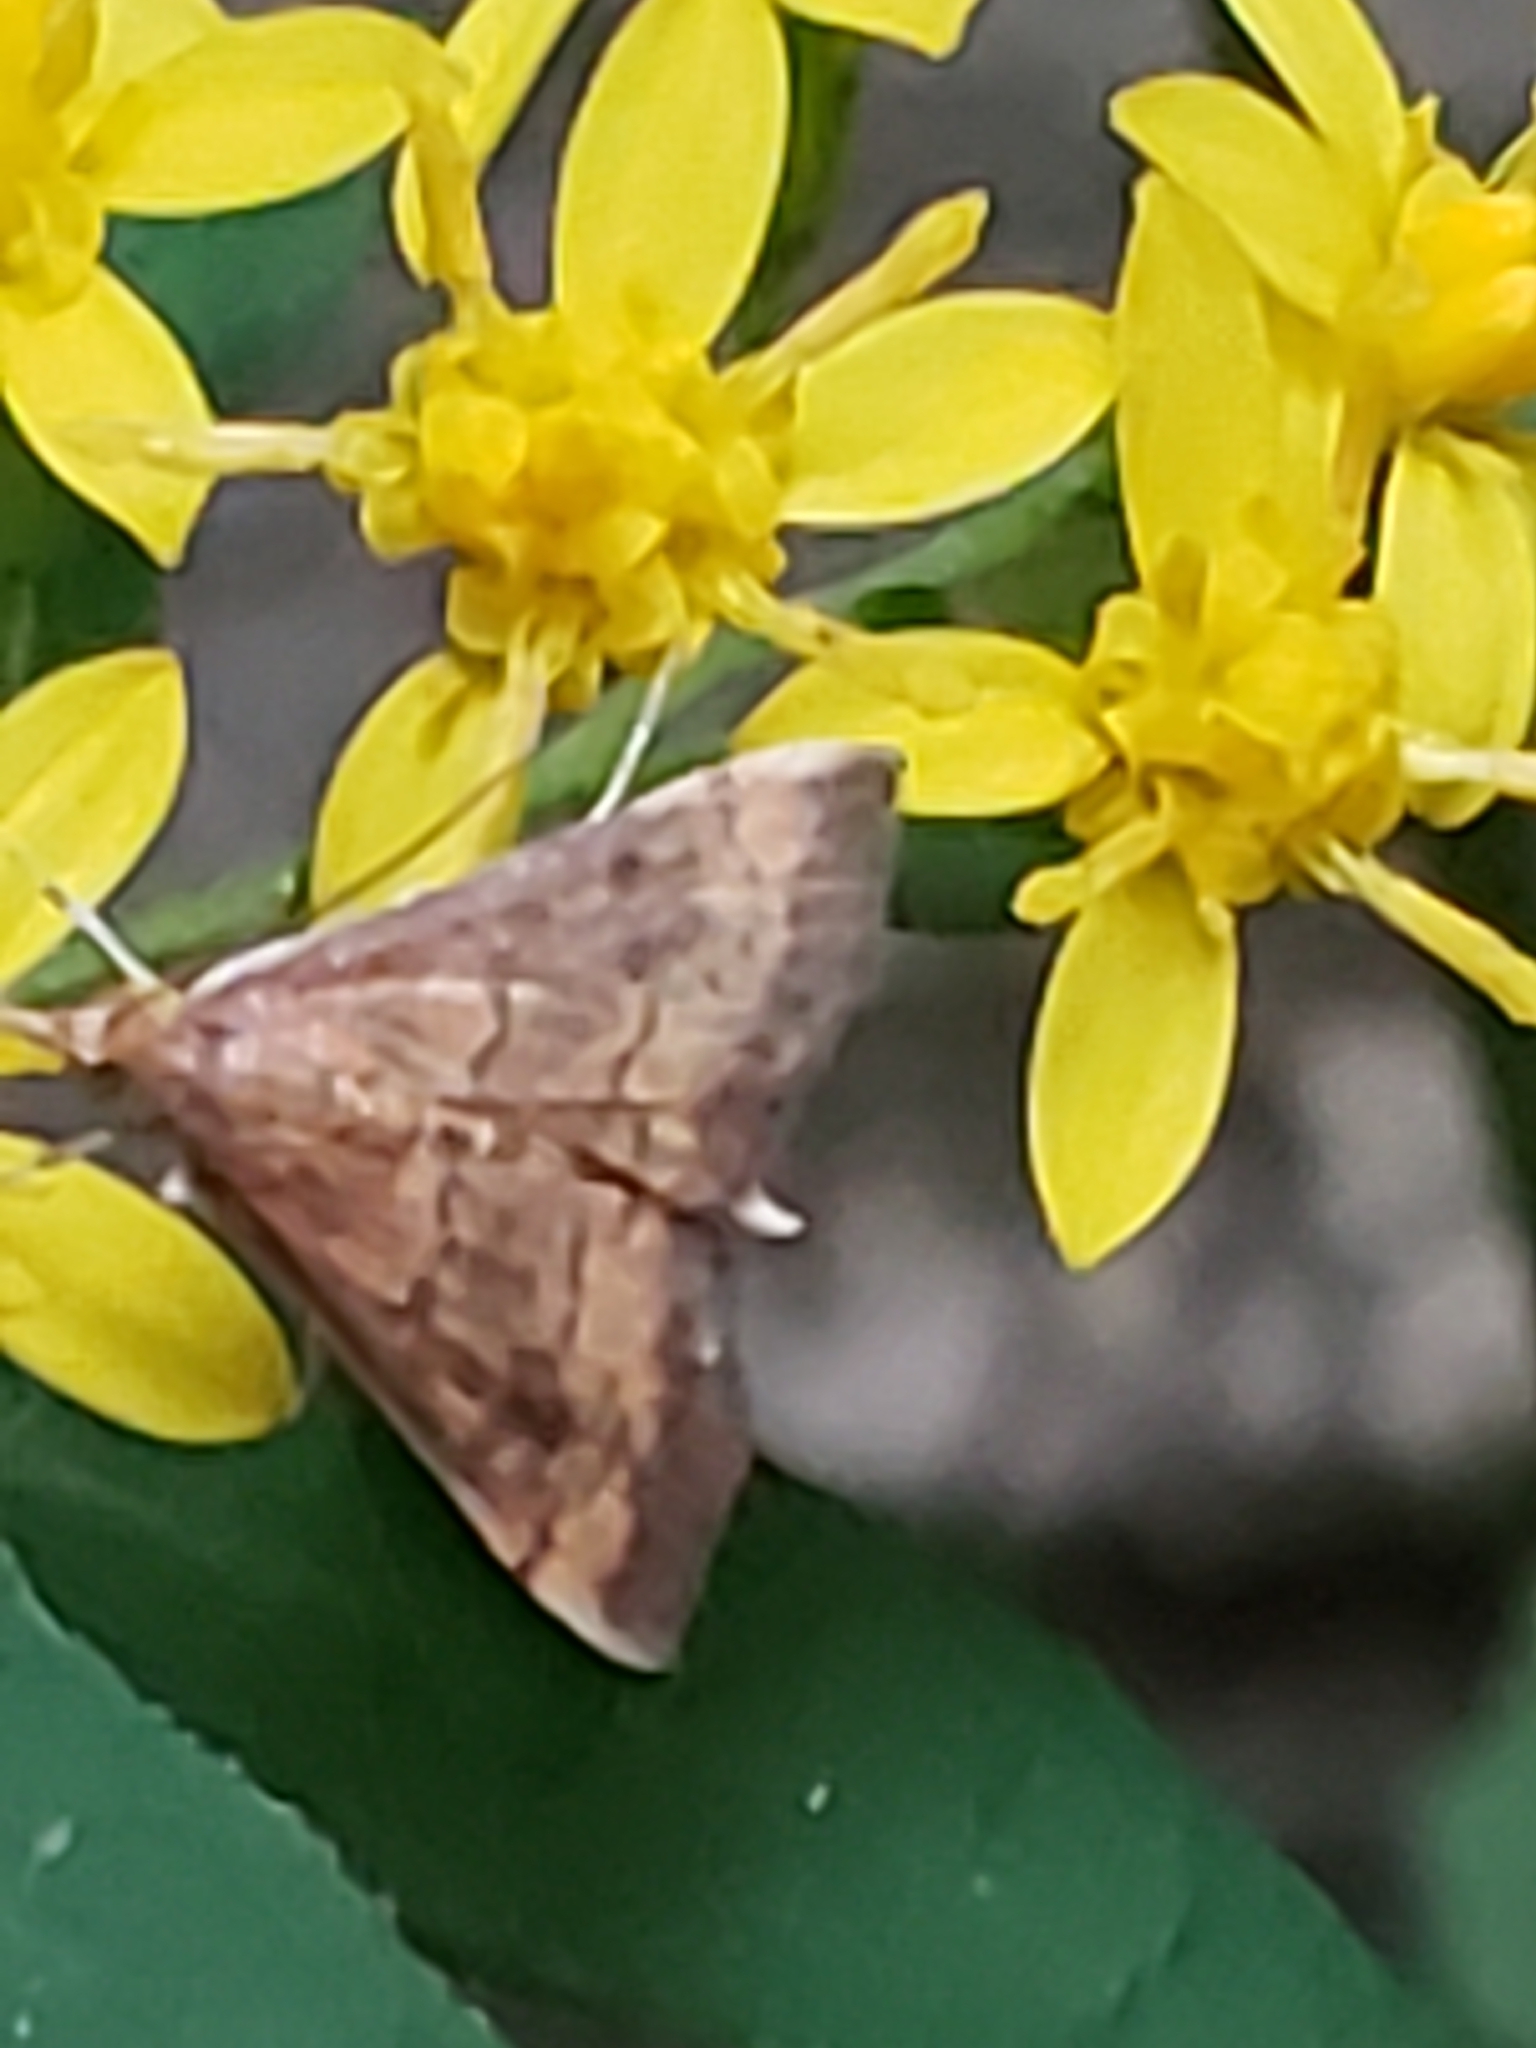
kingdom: Animalia
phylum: Arthropoda
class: Insecta
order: Lepidoptera
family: Crambidae
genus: Pyrausta
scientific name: Pyrausta rubricalis
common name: Variable reddish pyrausta
